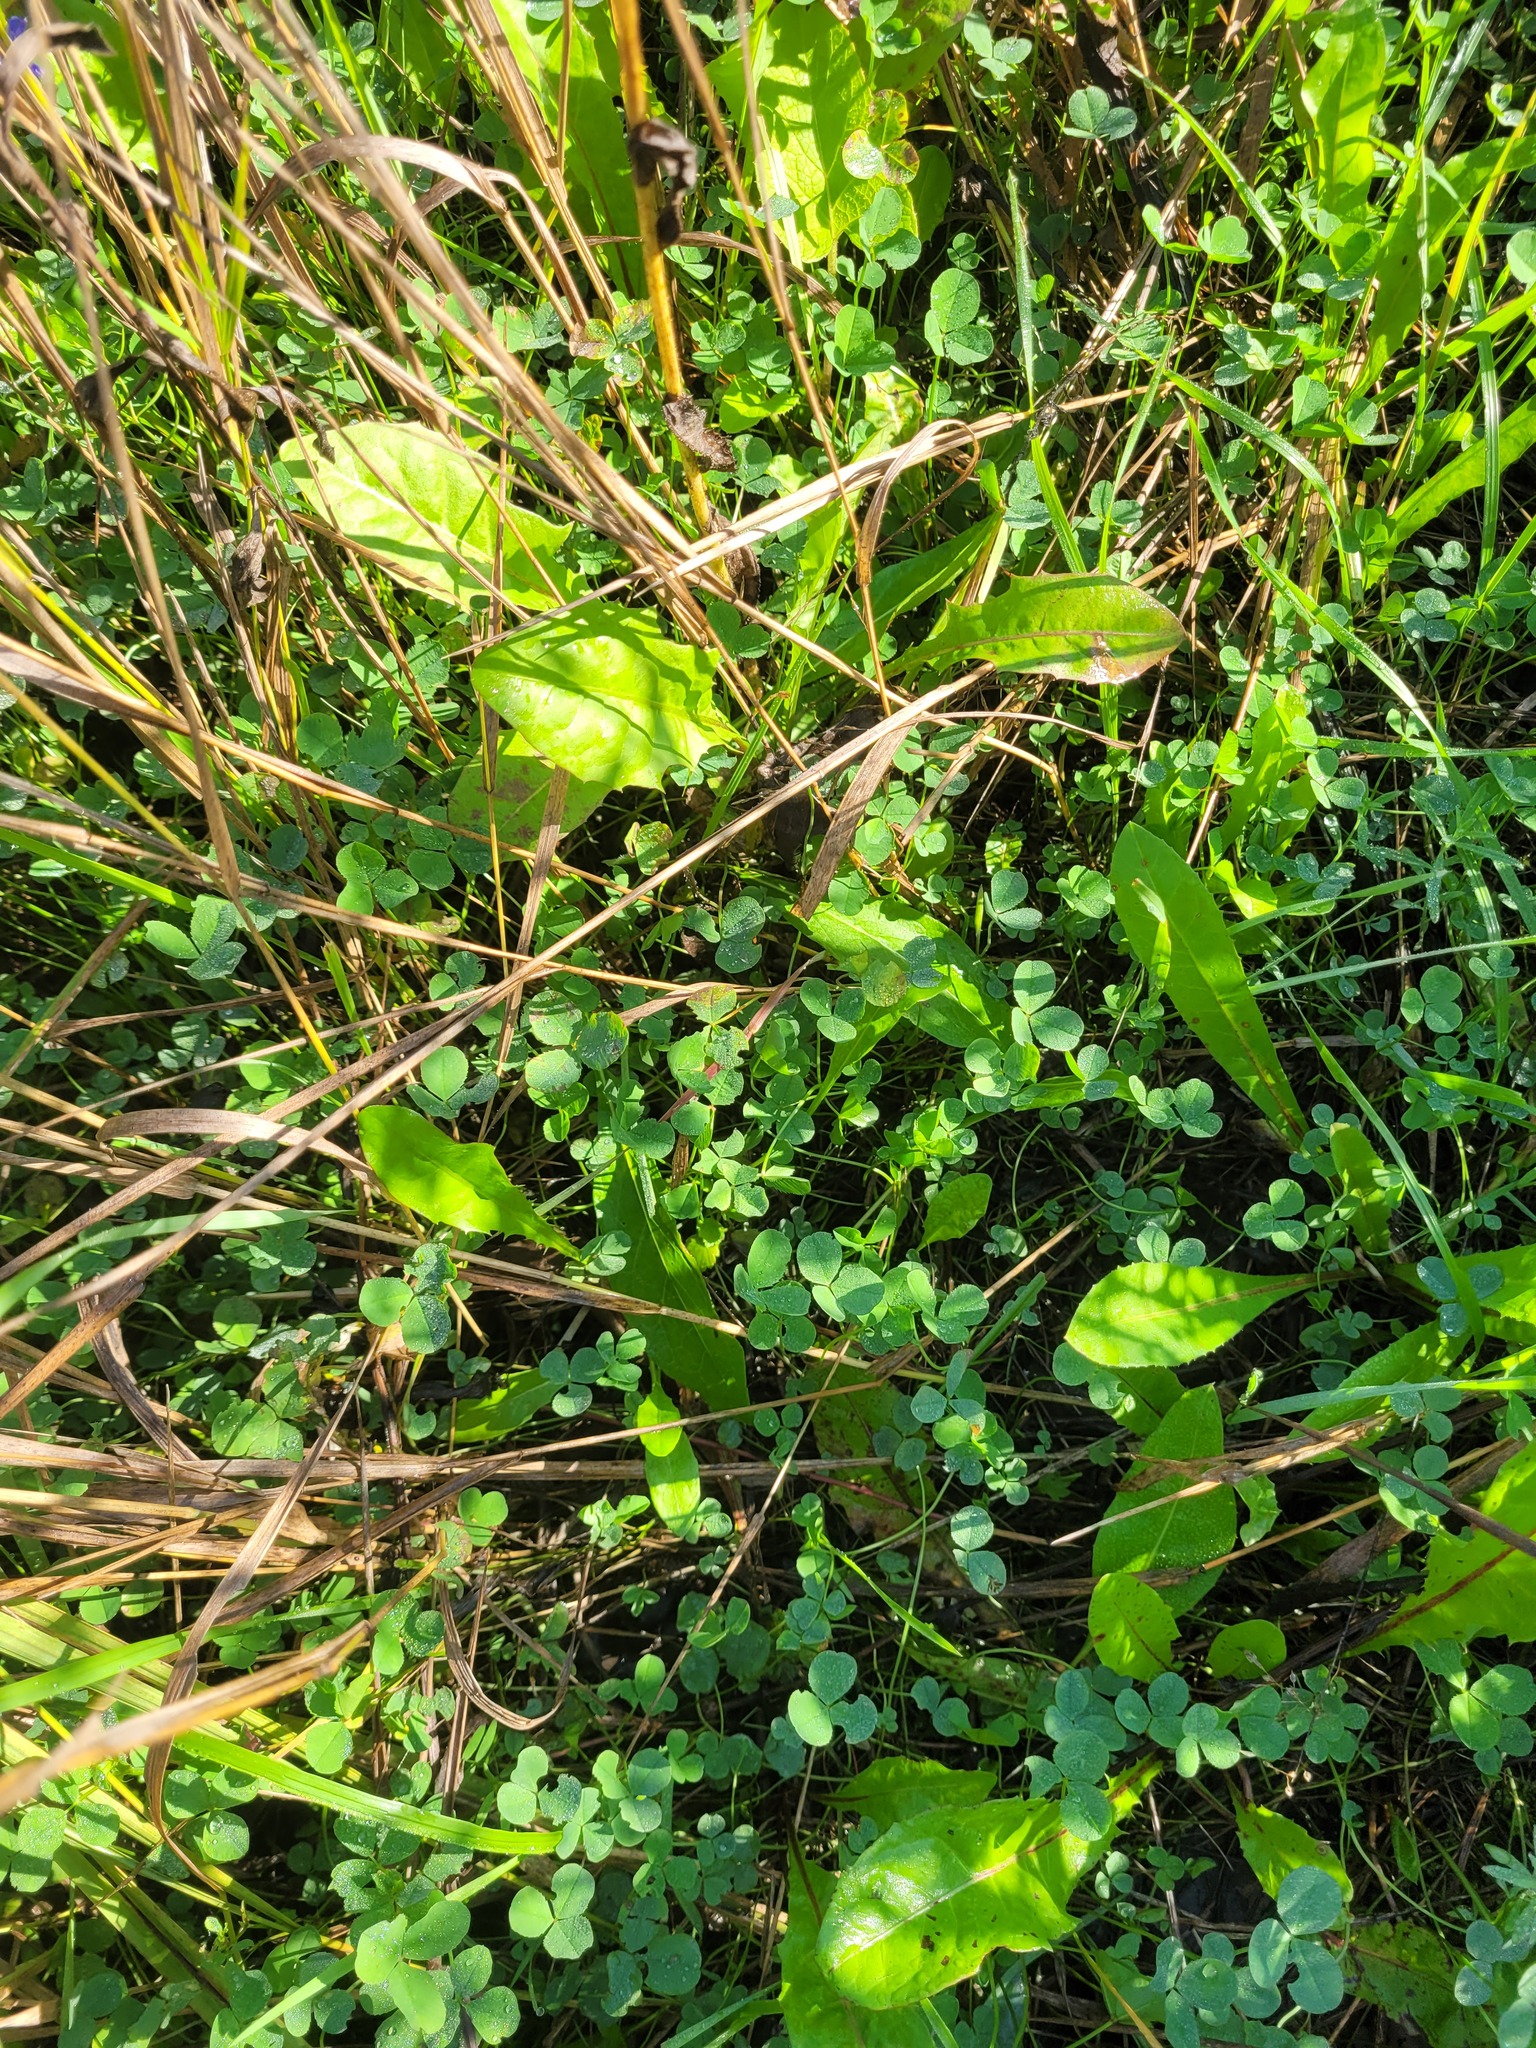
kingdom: Plantae
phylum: Tracheophyta
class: Magnoliopsida
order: Fabales
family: Fabaceae
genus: Trifolium
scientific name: Trifolium repens
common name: White clover
